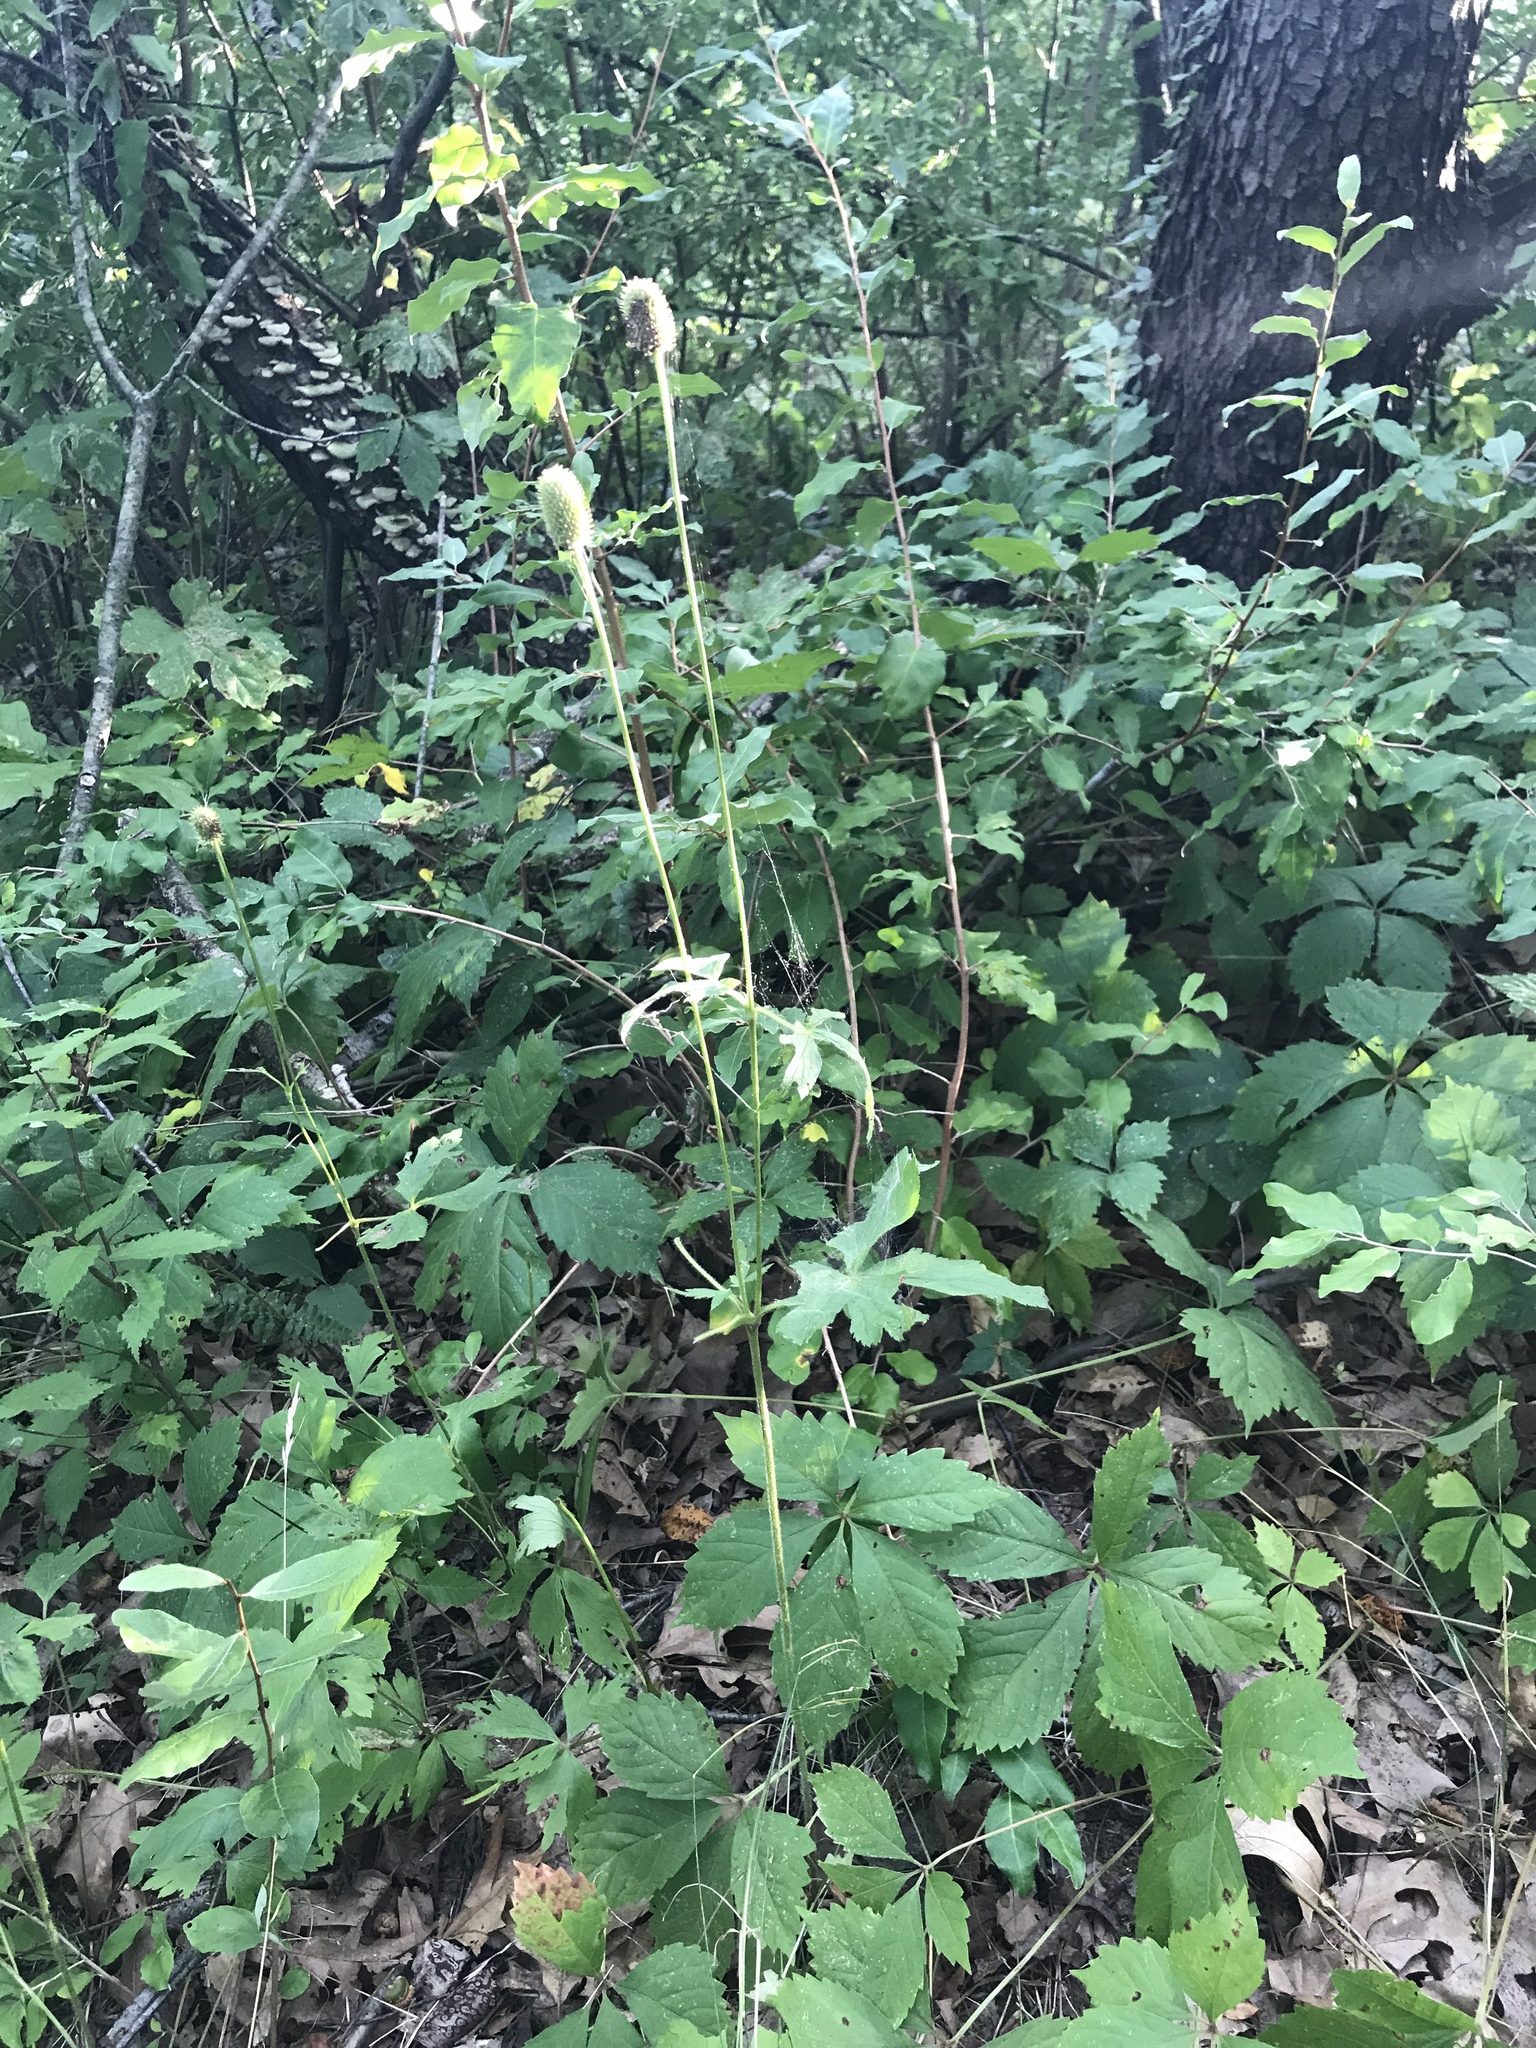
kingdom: Plantae
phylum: Tracheophyta
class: Magnoliopsida
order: Ranunculales
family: Ranunculaceae
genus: Anemone
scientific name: Anemone virginiana
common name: Tall anemone
